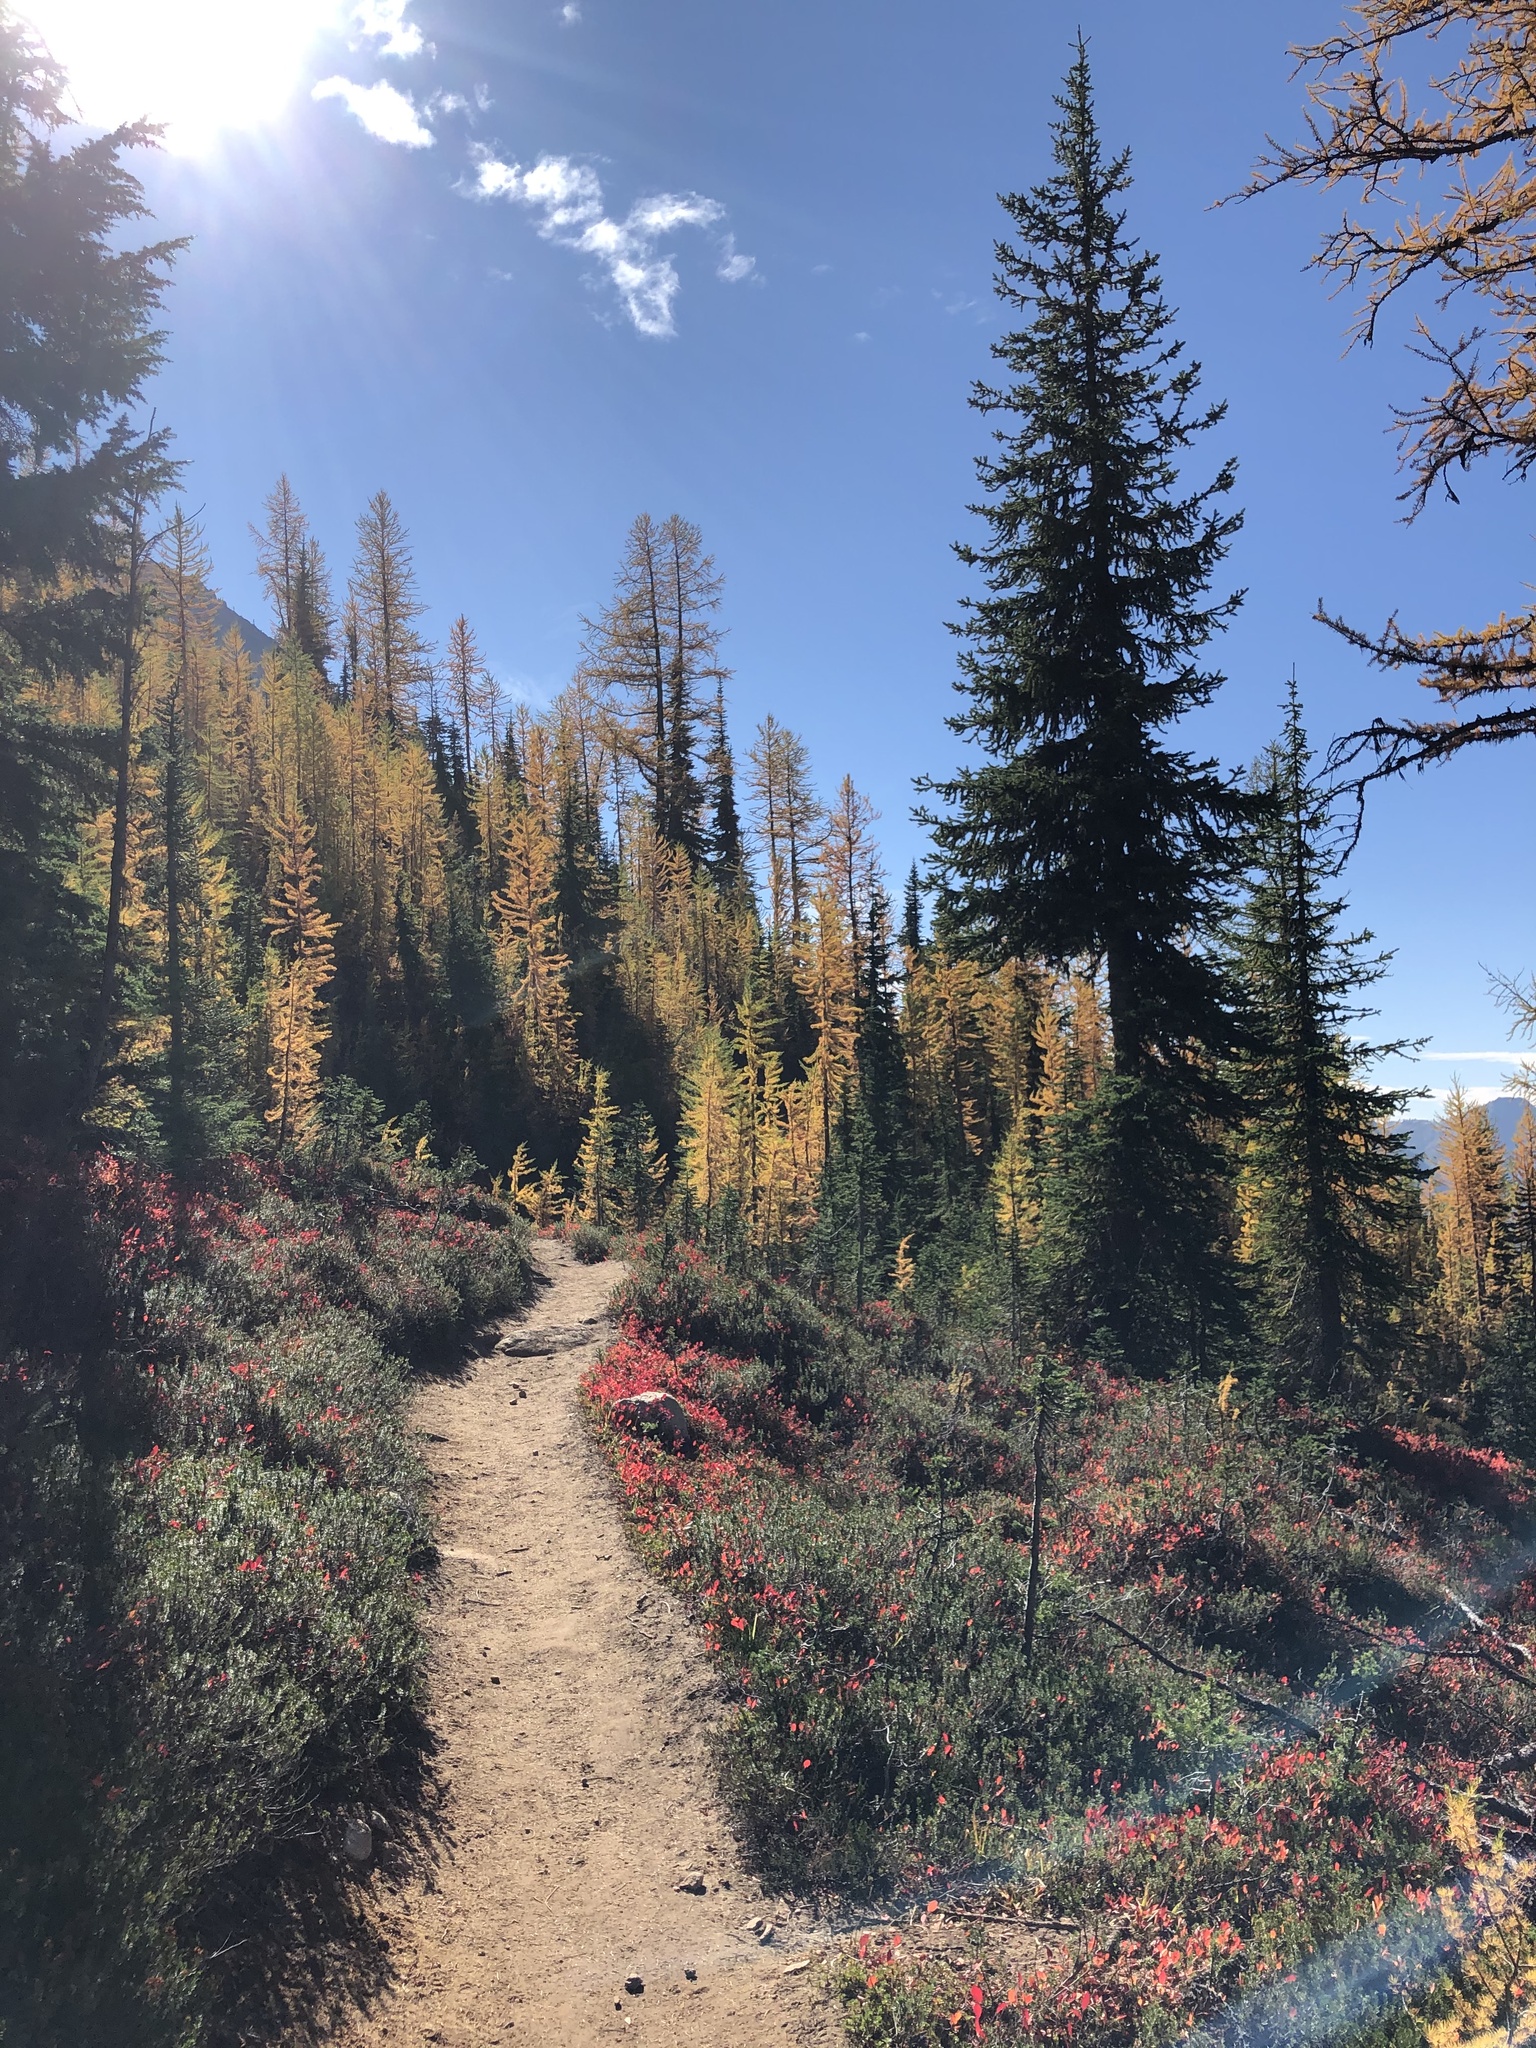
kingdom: Plantae
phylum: Tracheophyta
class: Pinopsida
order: Pinales
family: Pinaceae
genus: Tsuga
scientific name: Tsuga mertensiana
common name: Mountain hemlock
